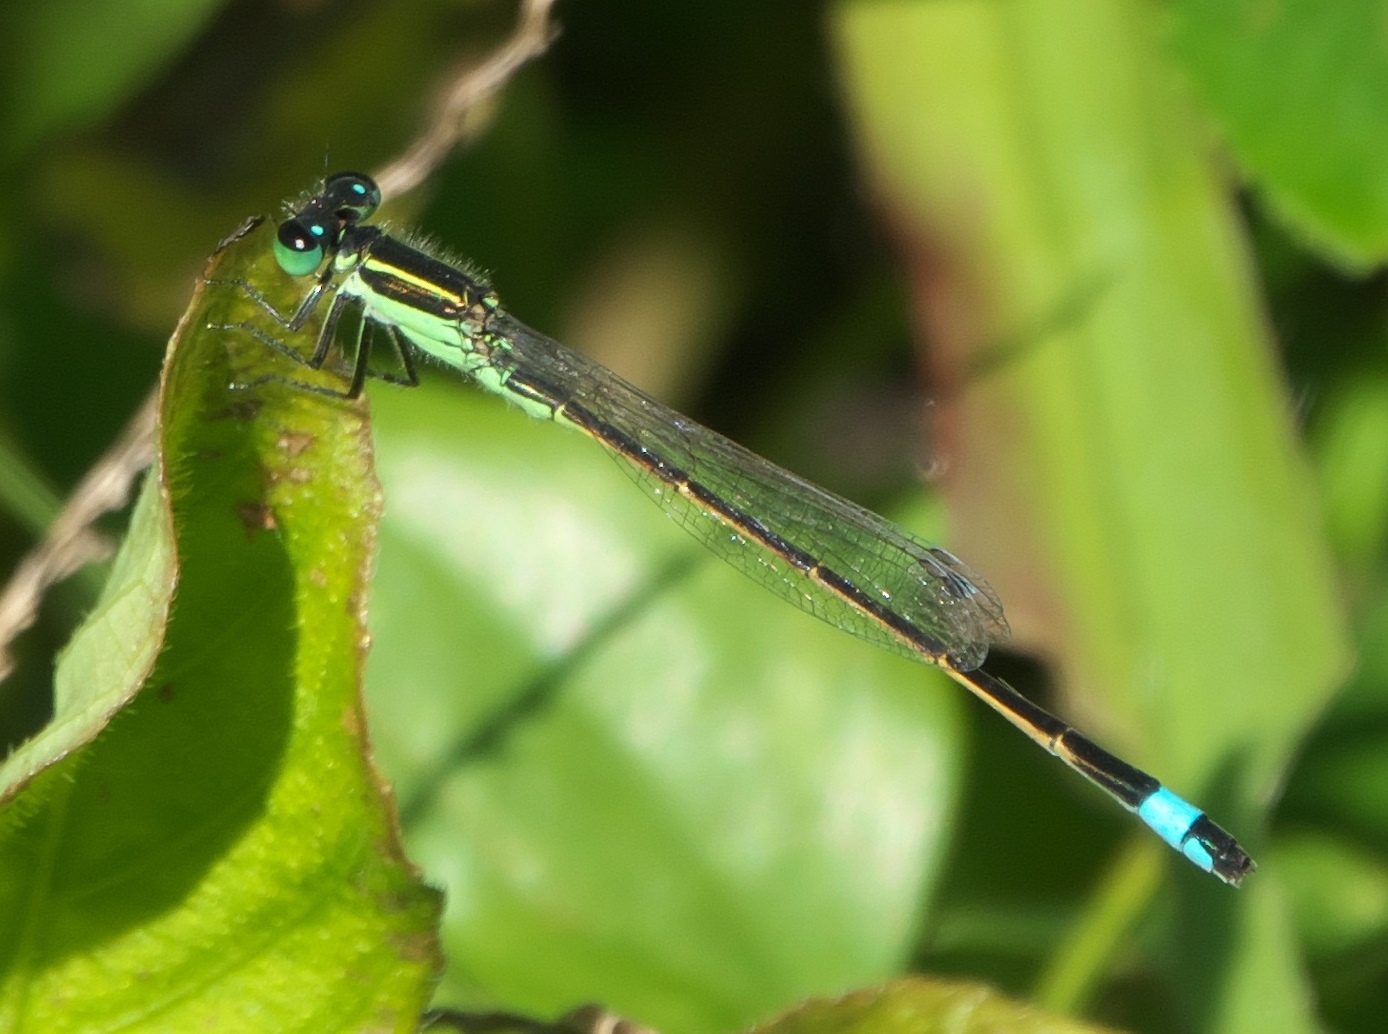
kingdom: Animalia
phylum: Arthropoda
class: Insecta
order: Odonata
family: Coenagrionidae
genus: Ischnura
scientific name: Ischnura ramburii
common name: Rambur's forktail
